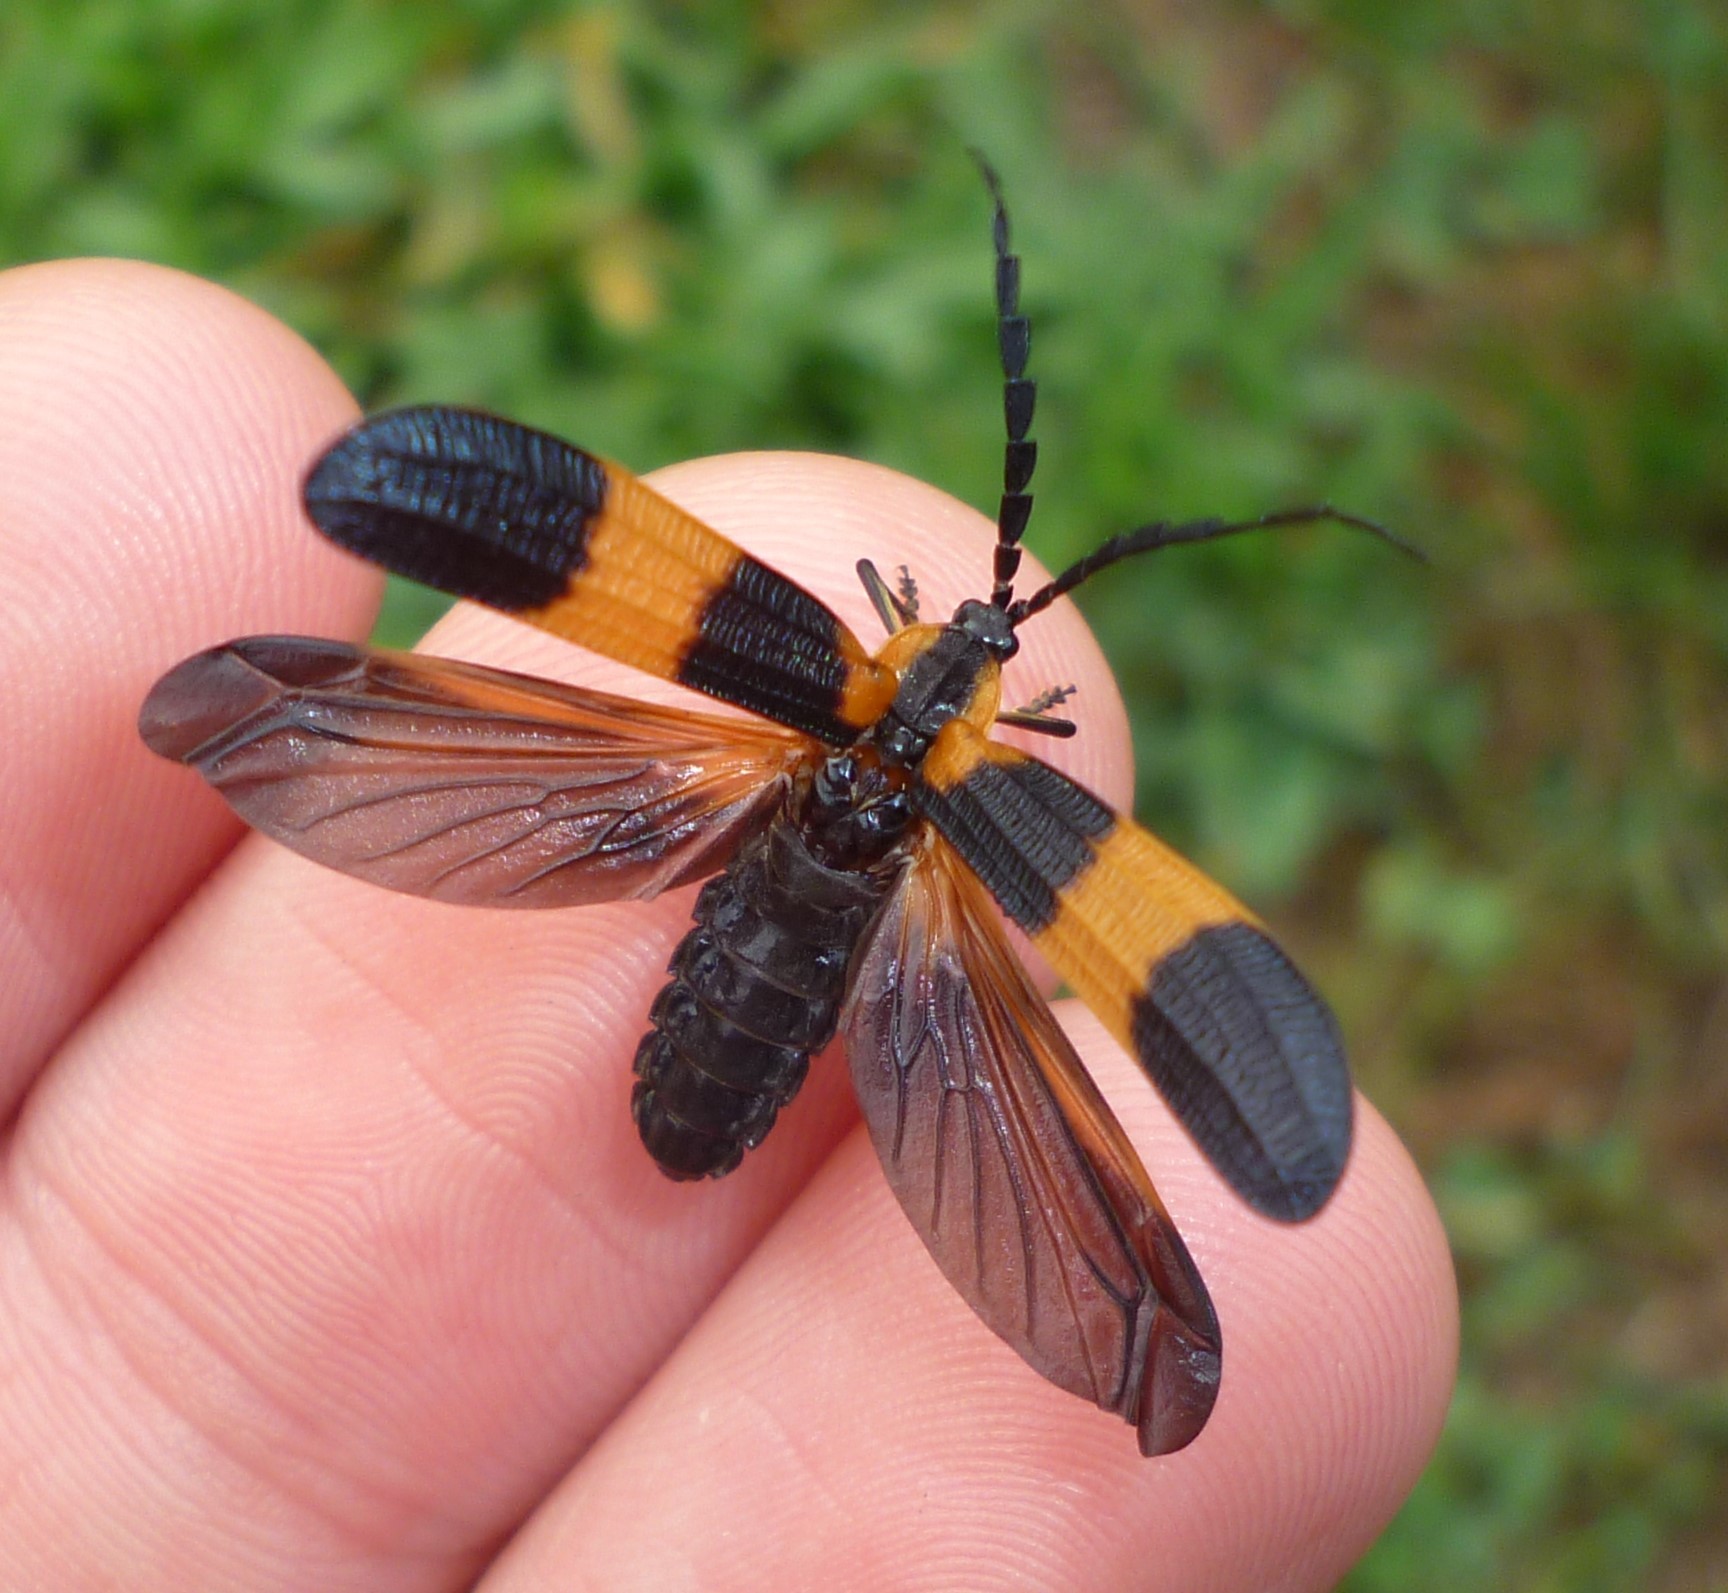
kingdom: Animalia
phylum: Arthropoda
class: Insecta
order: Coleoptera
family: Lycidae
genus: Calopteron
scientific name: Calopteron reticulatum
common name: Banded net-winged beetle
